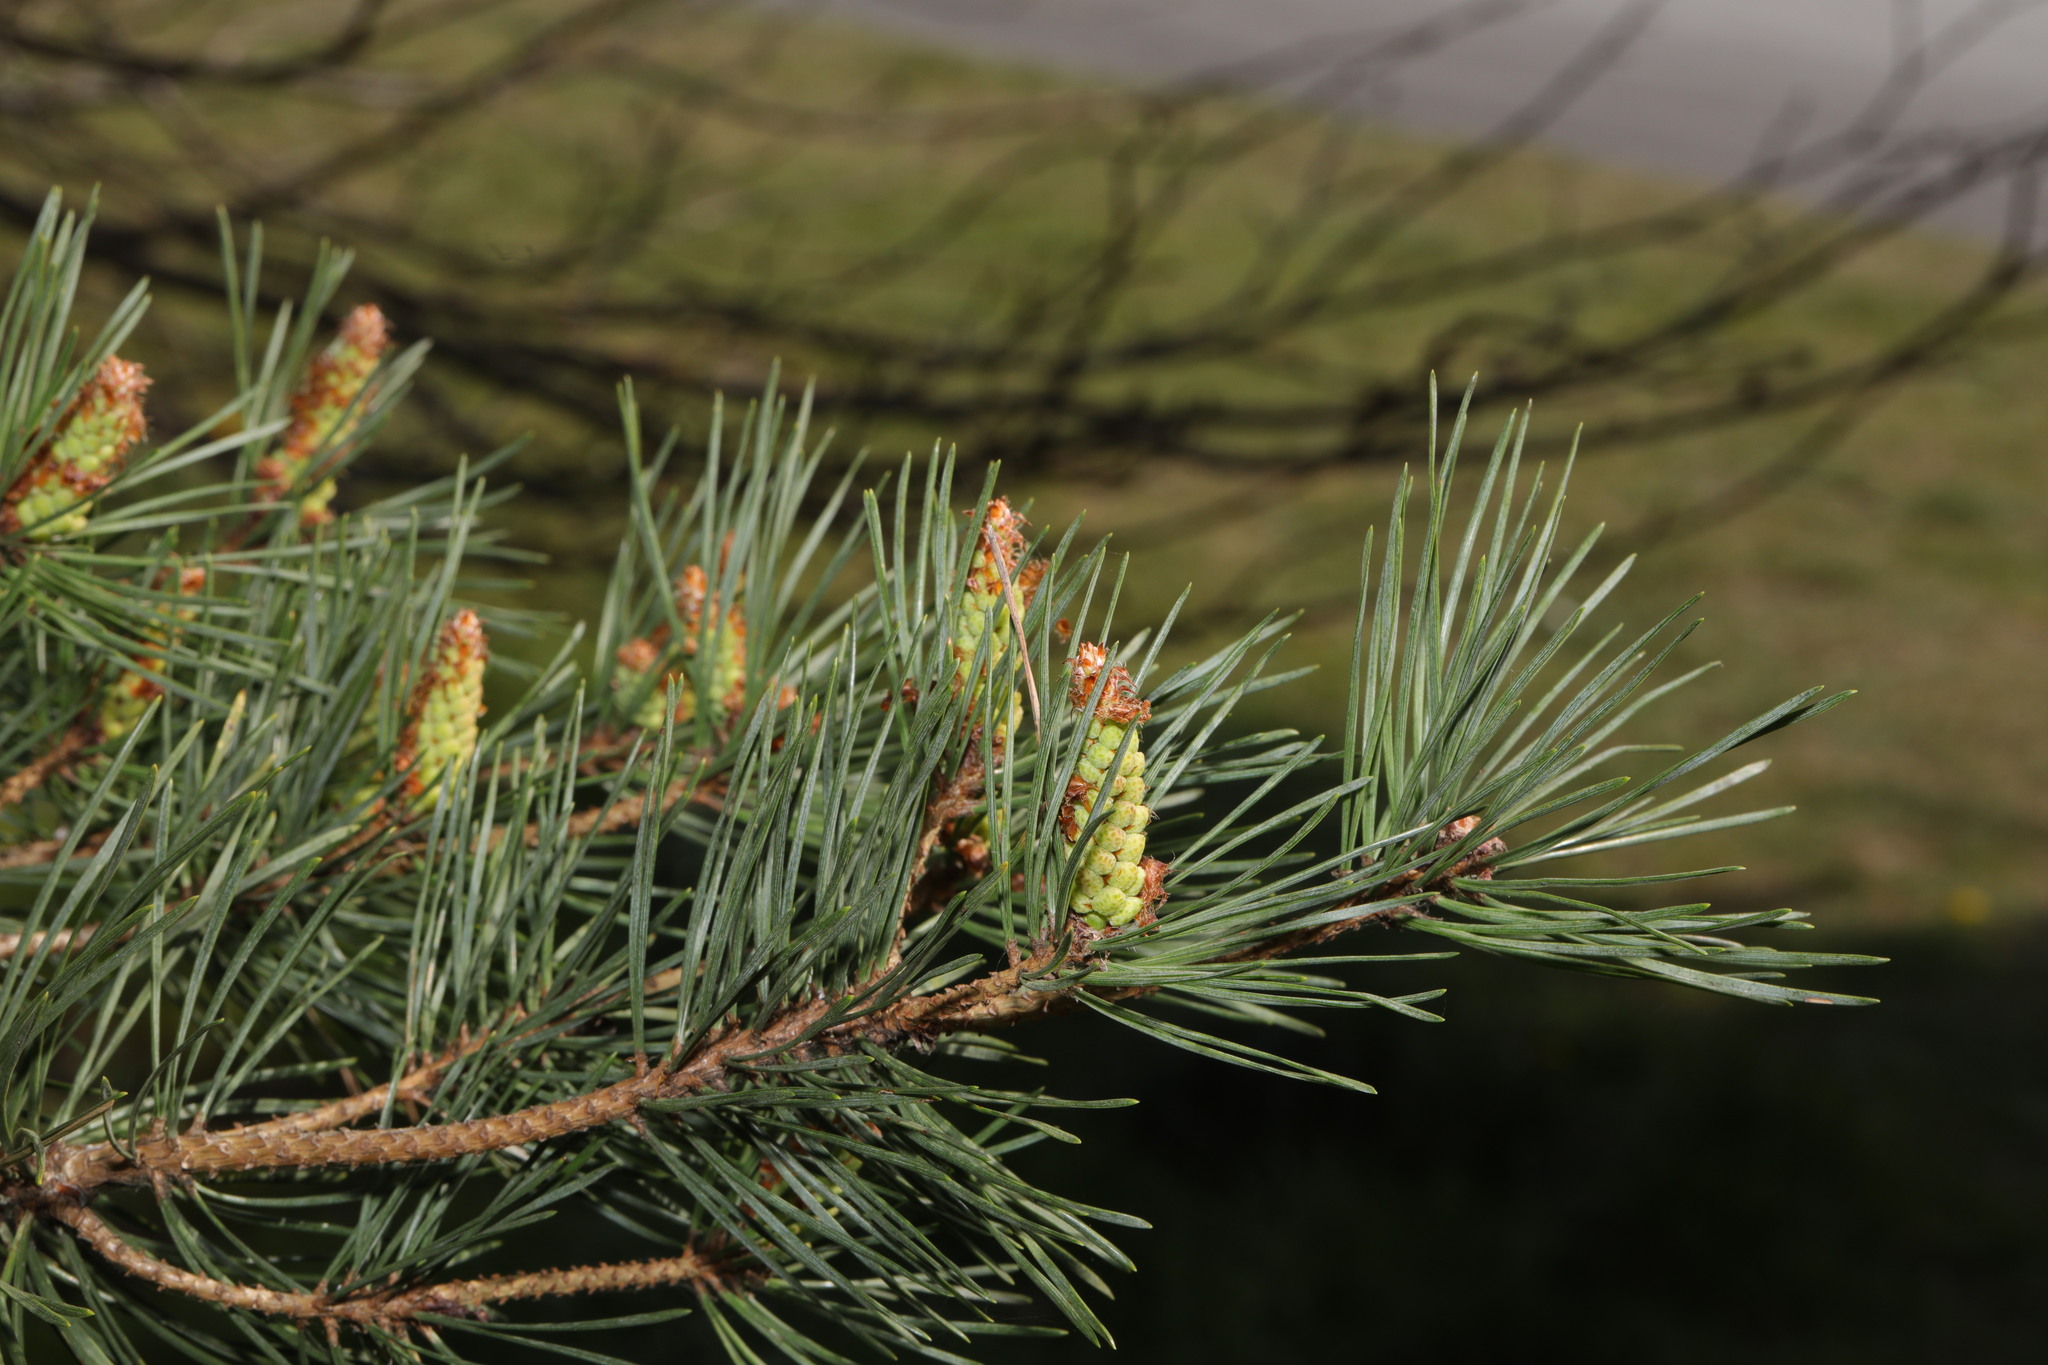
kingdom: Plantae
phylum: Tracheophyta
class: Pinopsida
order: Pinales
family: Pinaceae
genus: Pinus
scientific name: Pinus sylvestris
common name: Scots pine
